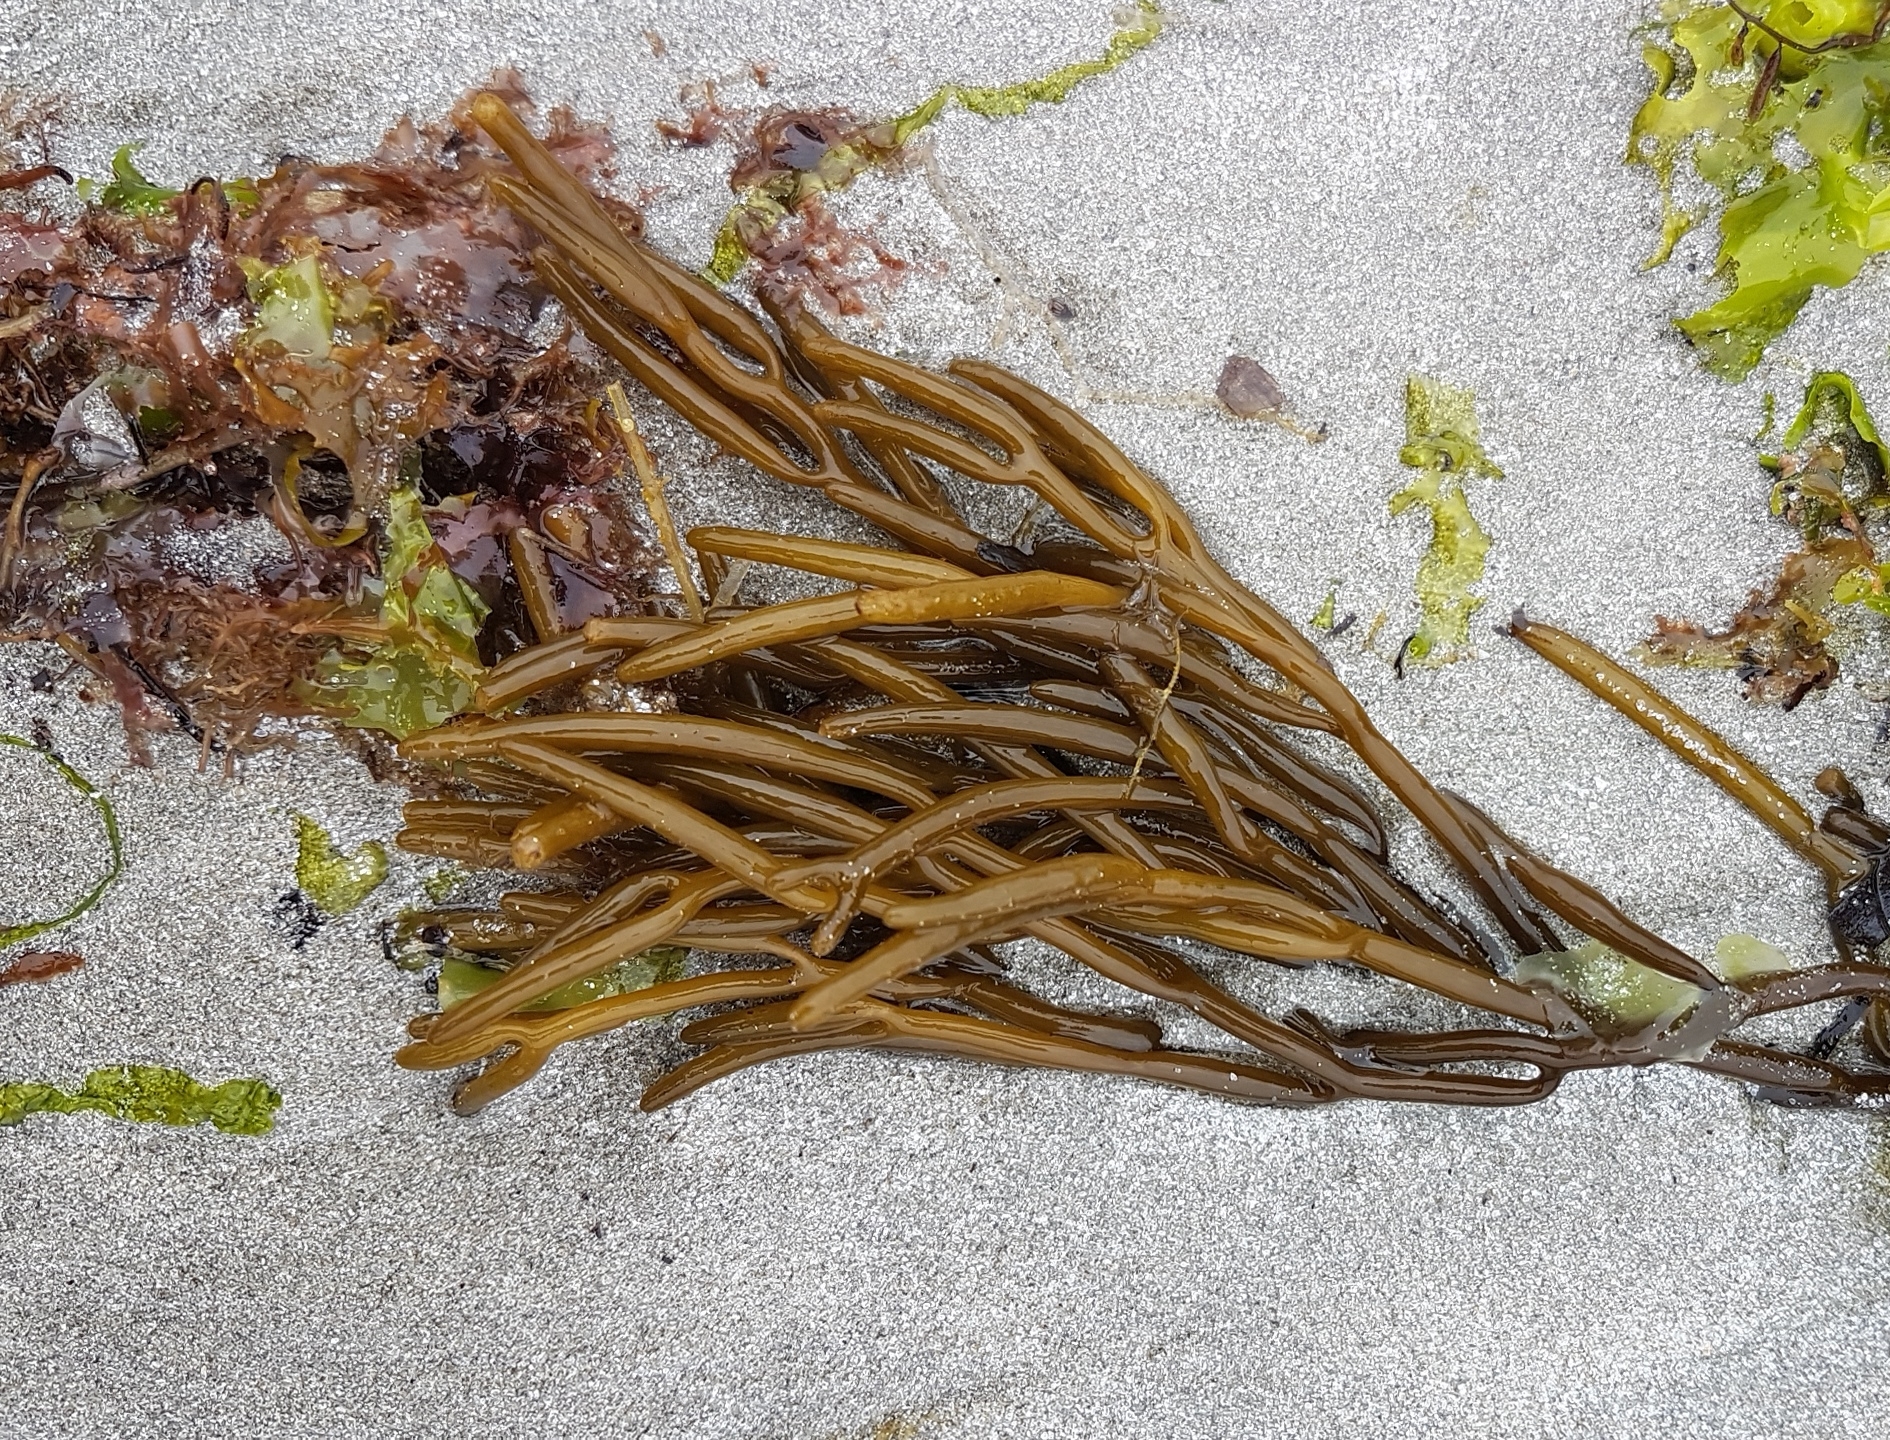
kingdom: Chromista
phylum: Ochrophyta
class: Phaeophyceae
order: Fucales
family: Sargassaceae
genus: Bifurcaria
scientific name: Bifurcaria bifurcata
